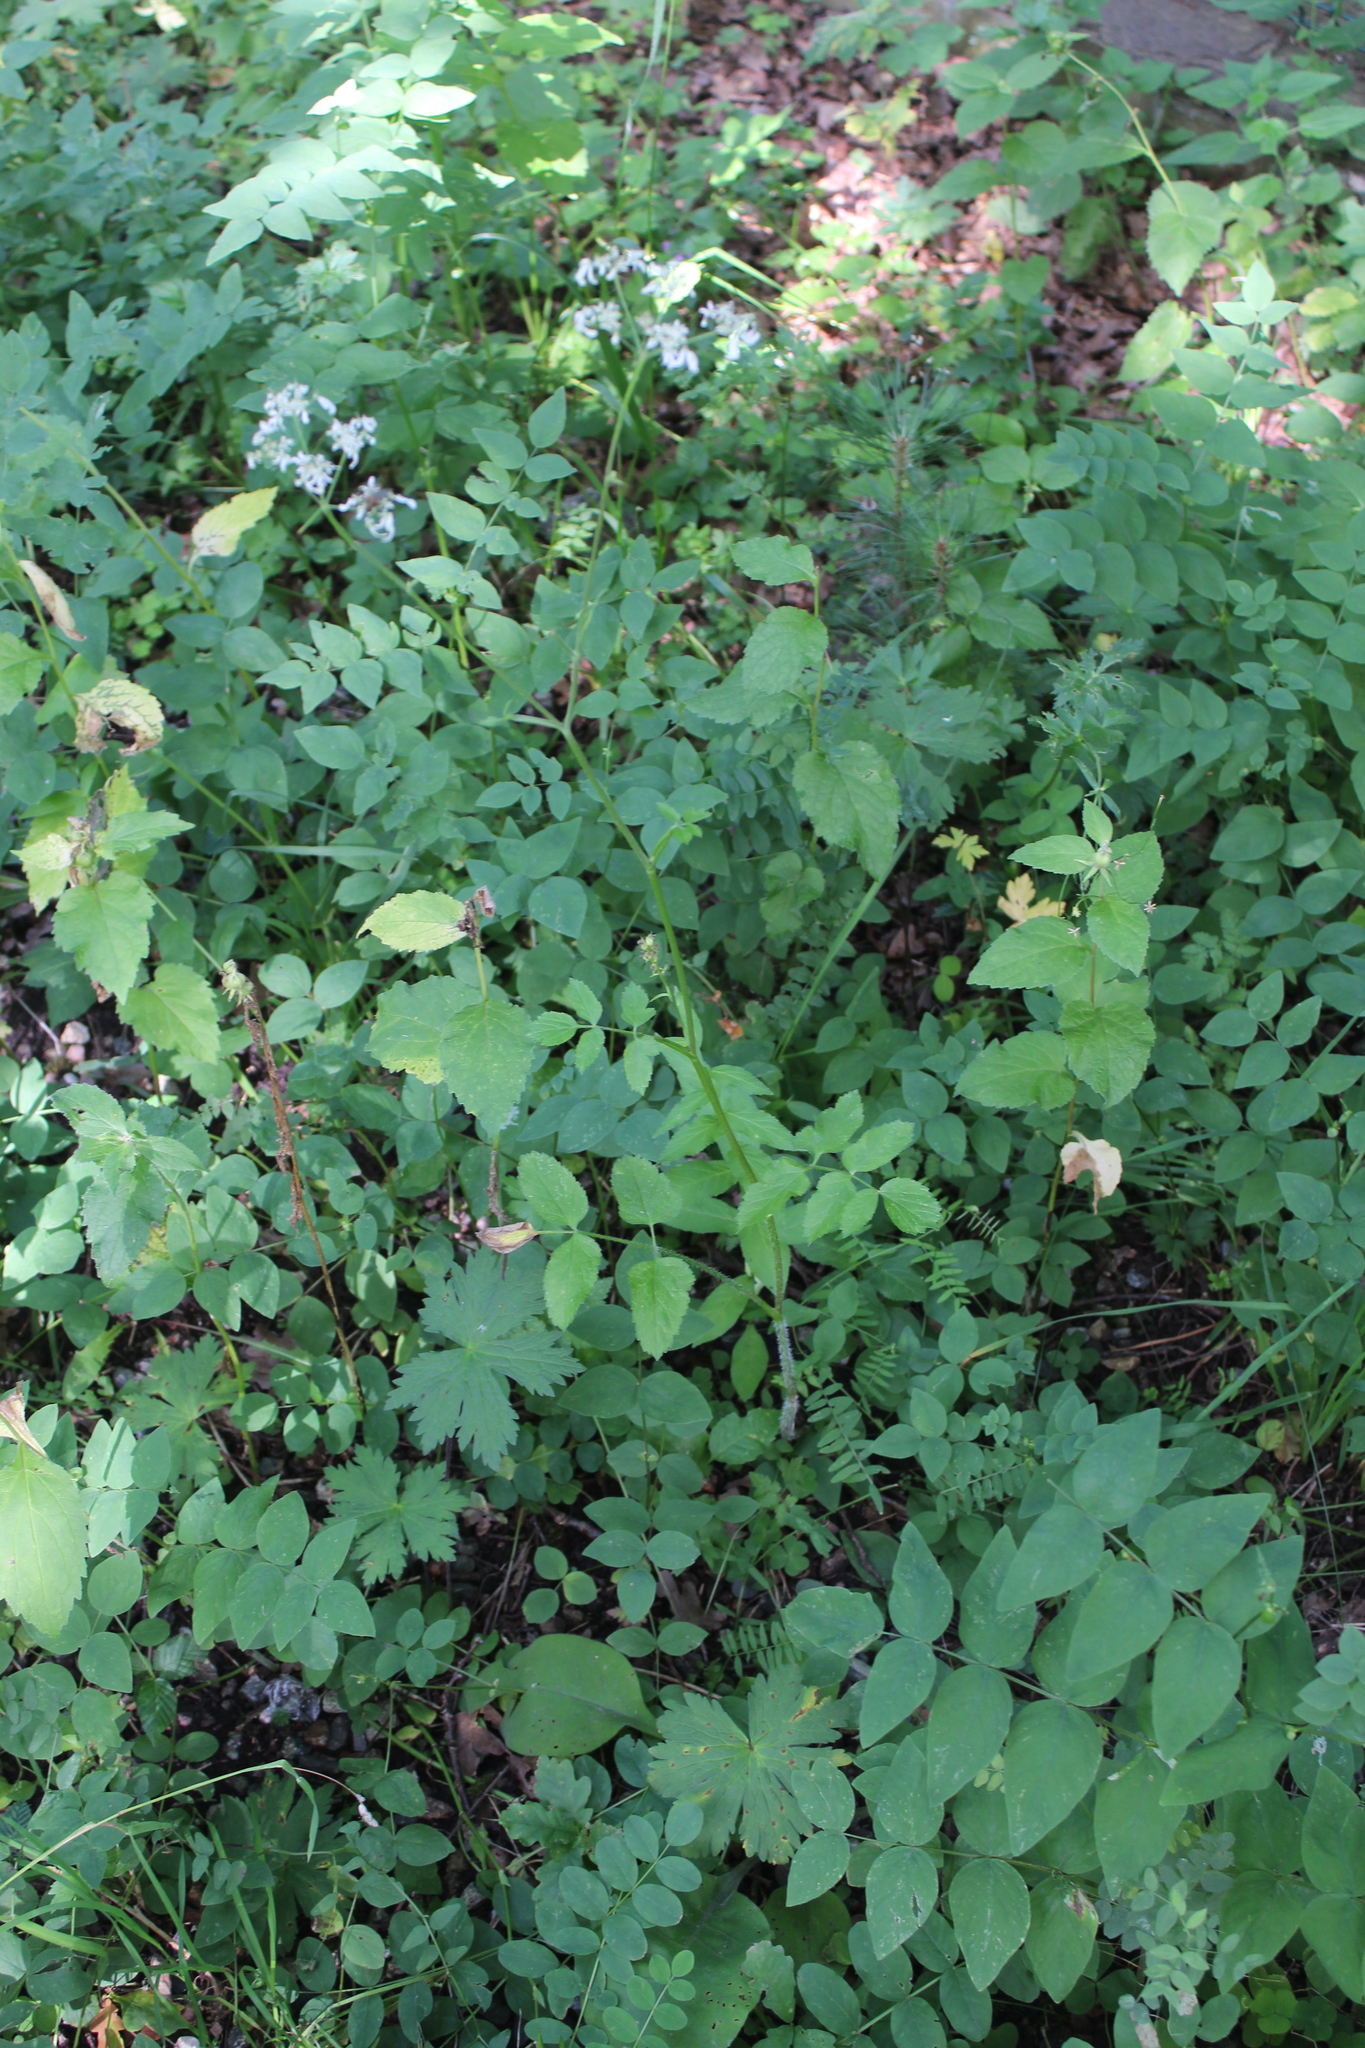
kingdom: Plantae
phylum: Tracheophyta
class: Magnoliopsida
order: Apiales
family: Apiaceae
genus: Heracleum
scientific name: Heracleum chorodanum
